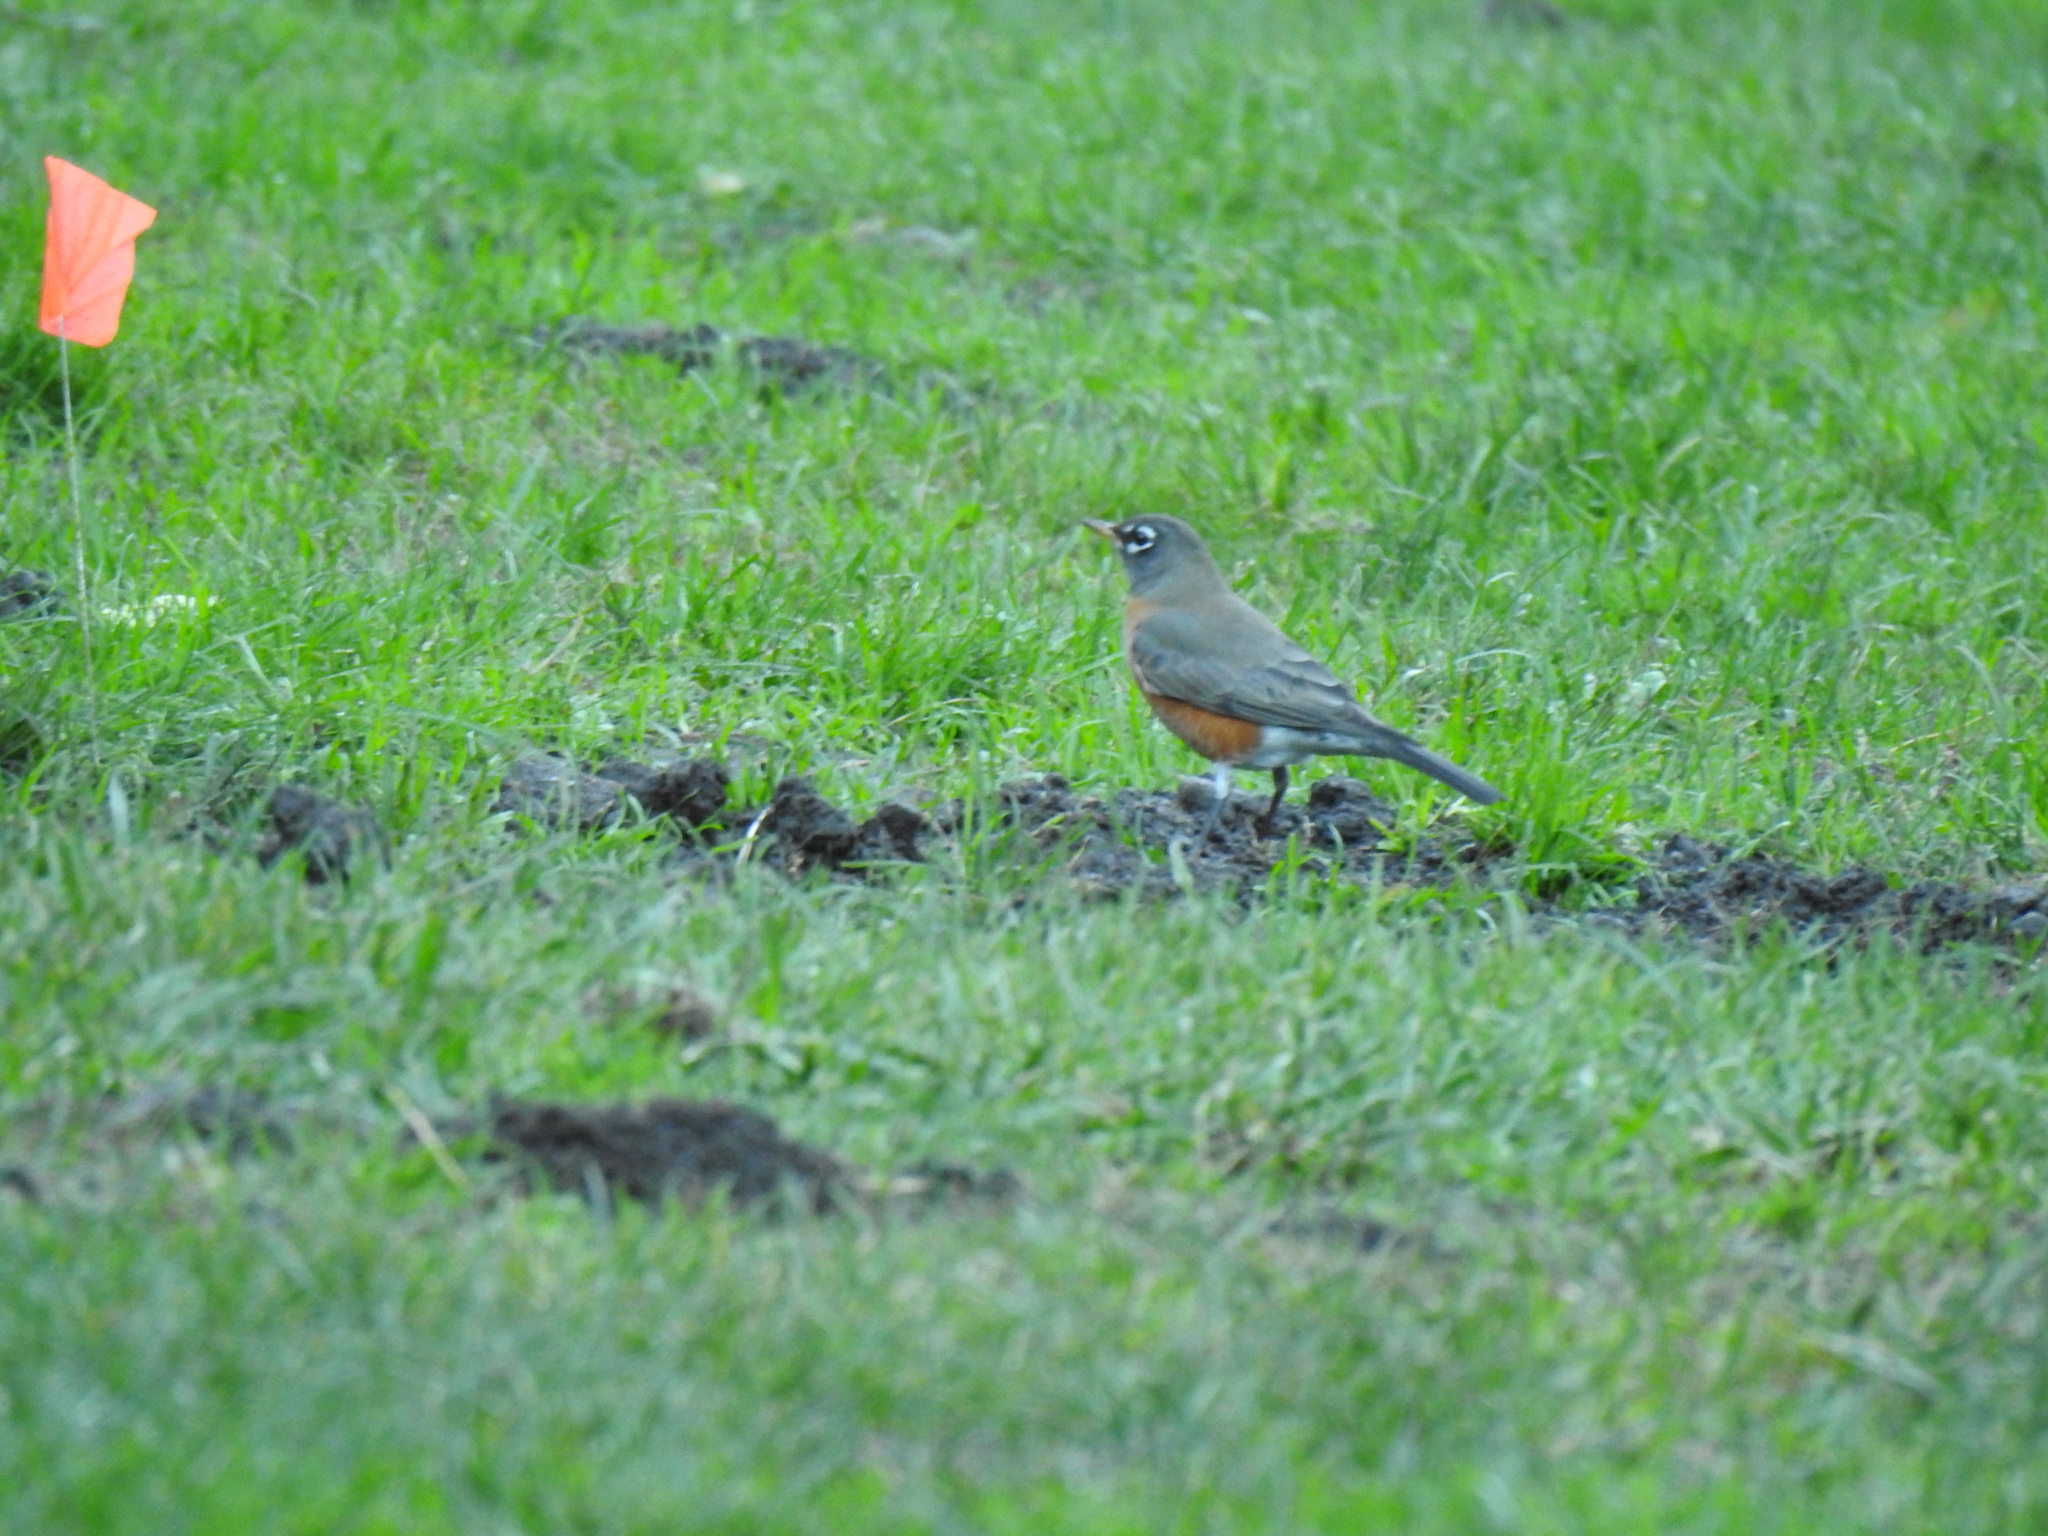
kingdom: Animalia
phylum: Chordata
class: Aves
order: Passeriformes
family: Turdidae
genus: Turdus
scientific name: Turdus migratorius
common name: American robin
